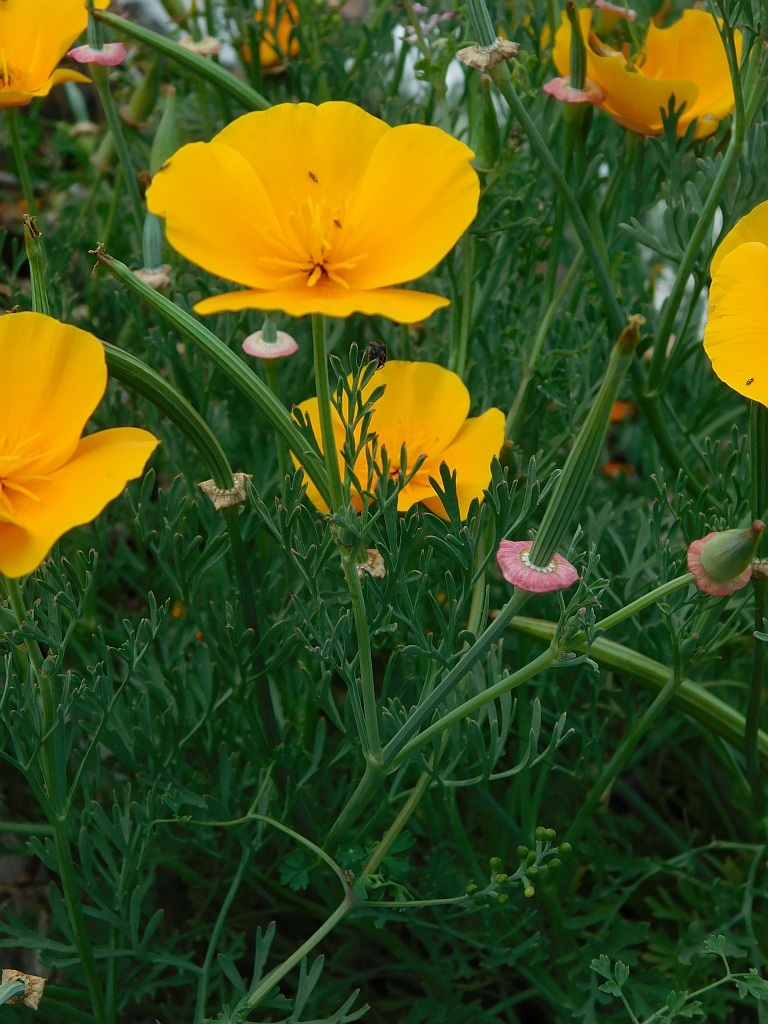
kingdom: Plantae
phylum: Tracheophyta
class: Magnoliopsida
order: Ranunculales
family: Papaveraceae
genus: Eschscholzia
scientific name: Eschscholzia californica
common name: California poppy
